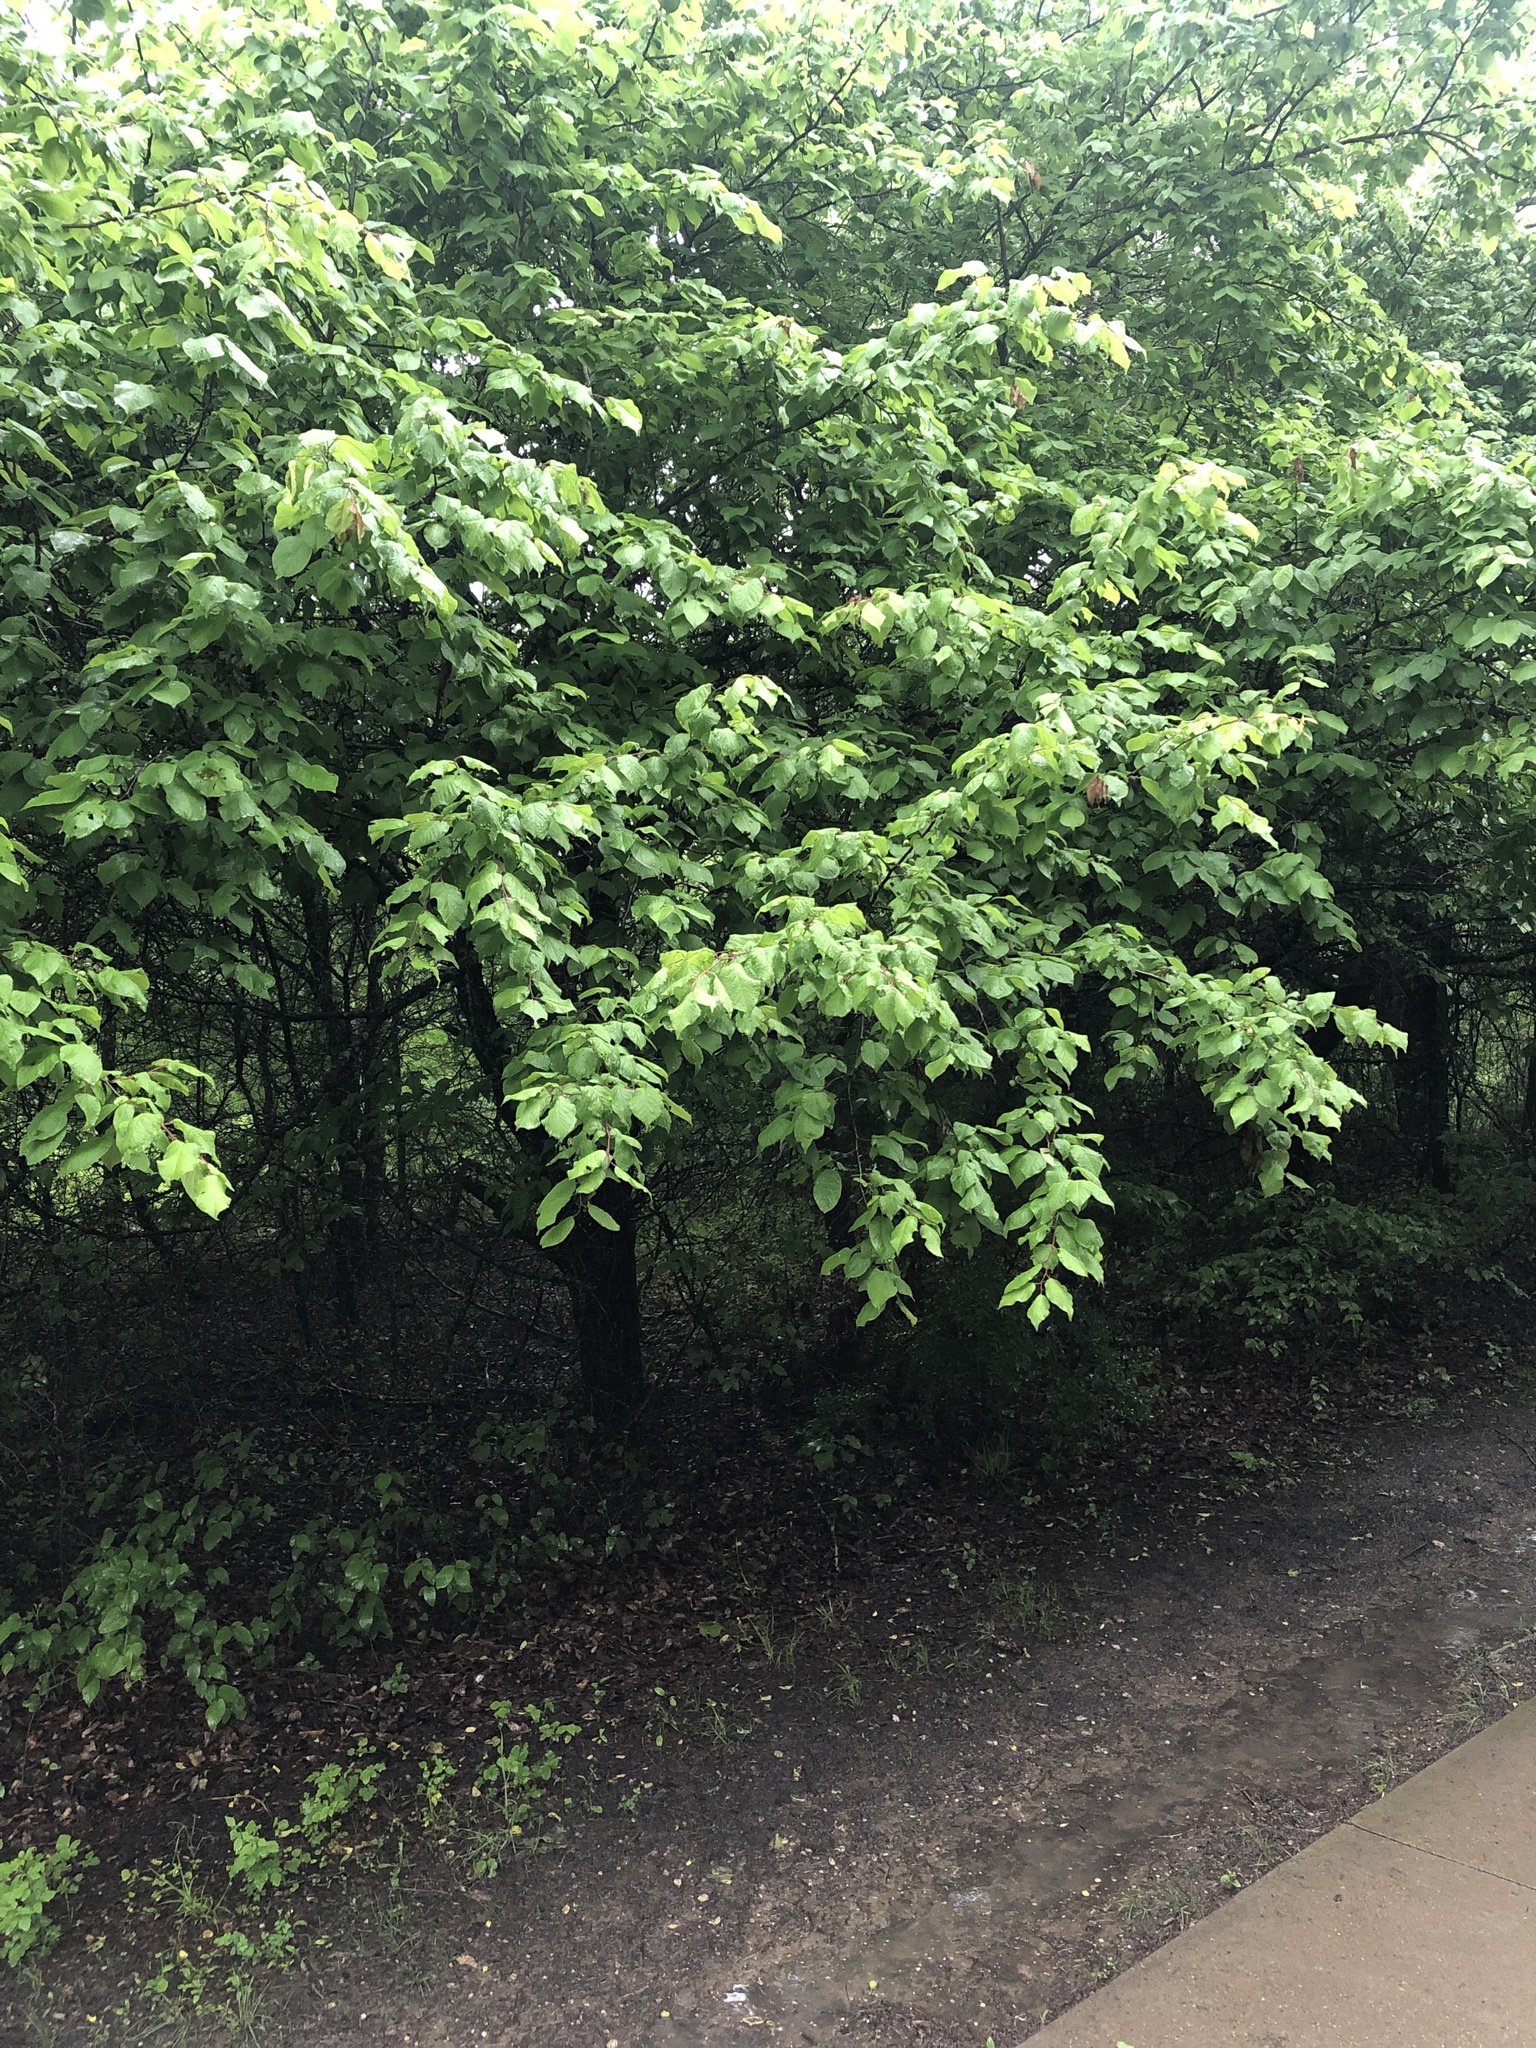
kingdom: Plantae
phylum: Tracheophyta
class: Magnoliopsida
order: Rosales
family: Rosaceae
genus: Prunus
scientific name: Prunus mexicana
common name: Mexican plum
